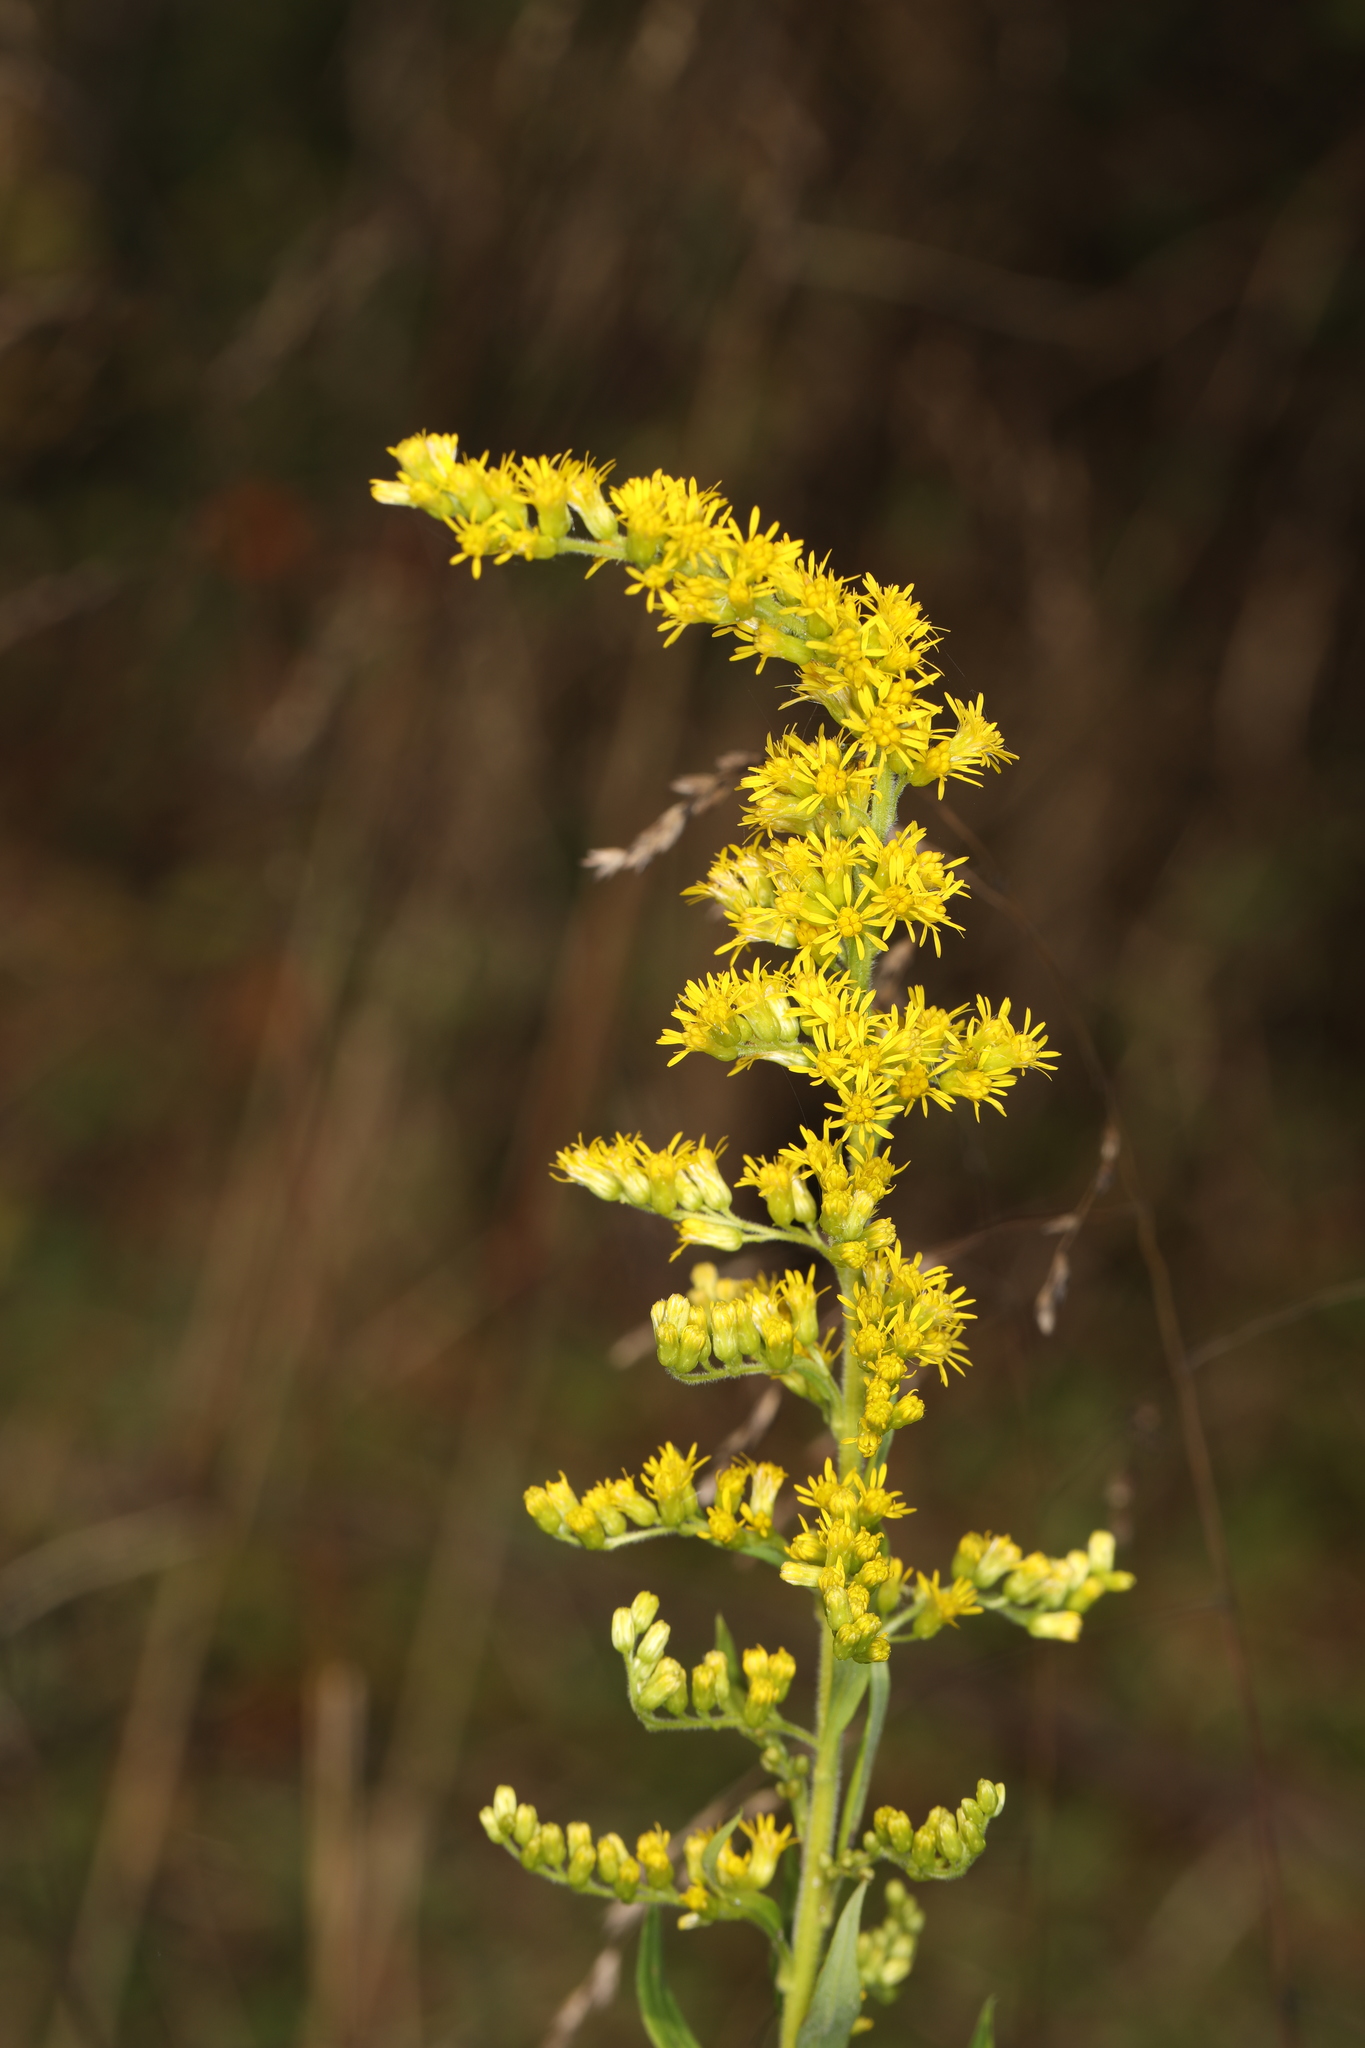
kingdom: Plantae
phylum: Tracheophyta
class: Magnoliopsida
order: Asterales
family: Asteraceae
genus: Solidago
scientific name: Solidago nemoralis
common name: Grey goldenrod
